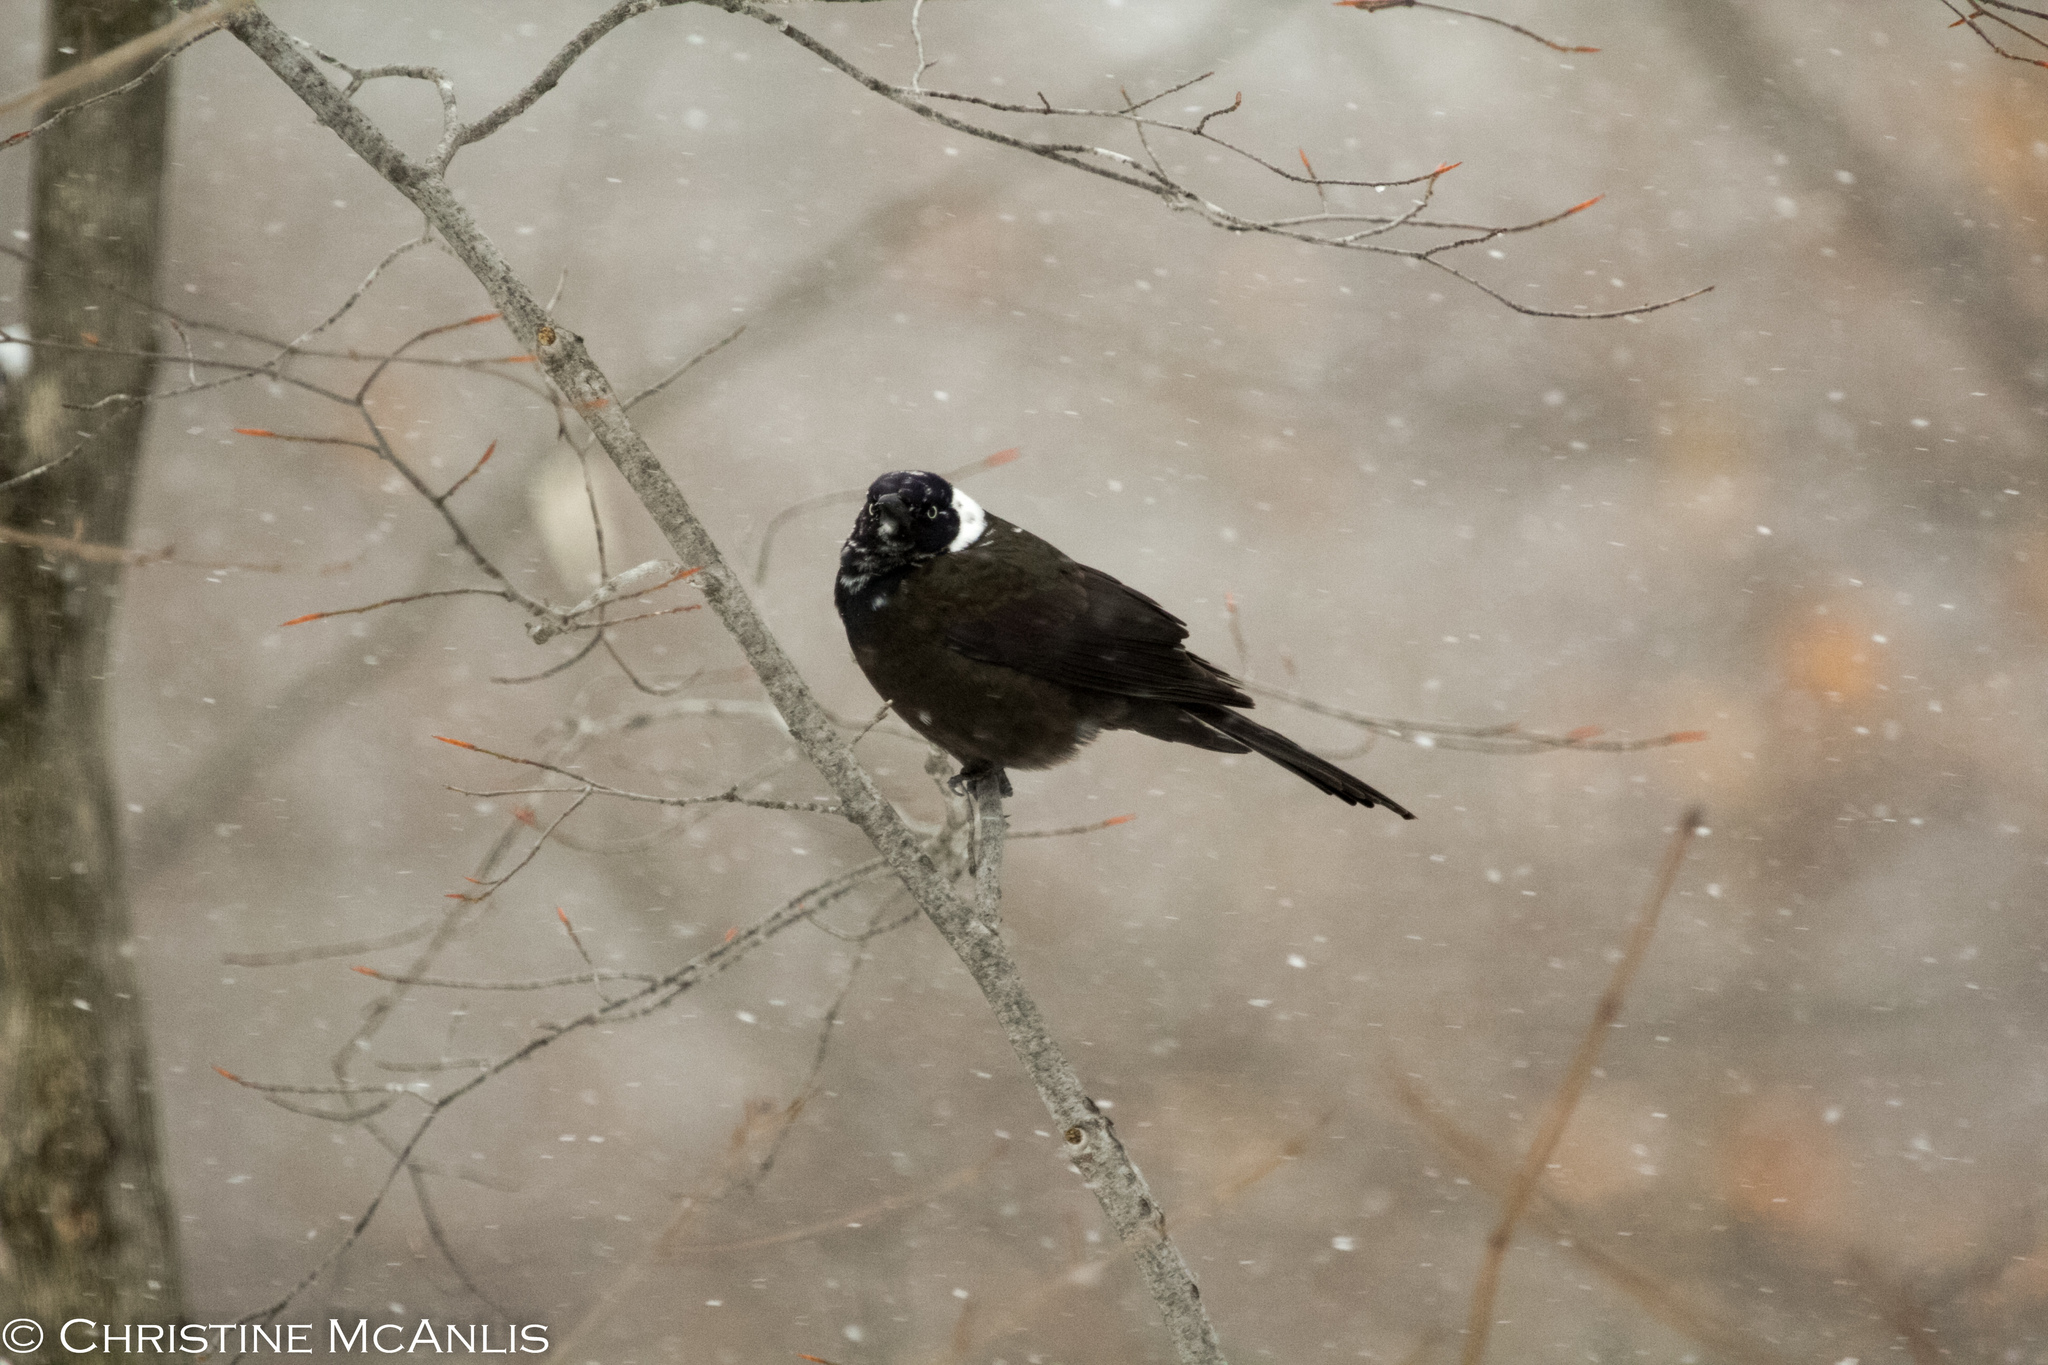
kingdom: Animalia
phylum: Chordata
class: Aves
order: Passeriformes
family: Icteridae
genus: Quiscalus
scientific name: Quiscalus quiscula
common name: Common grackle
